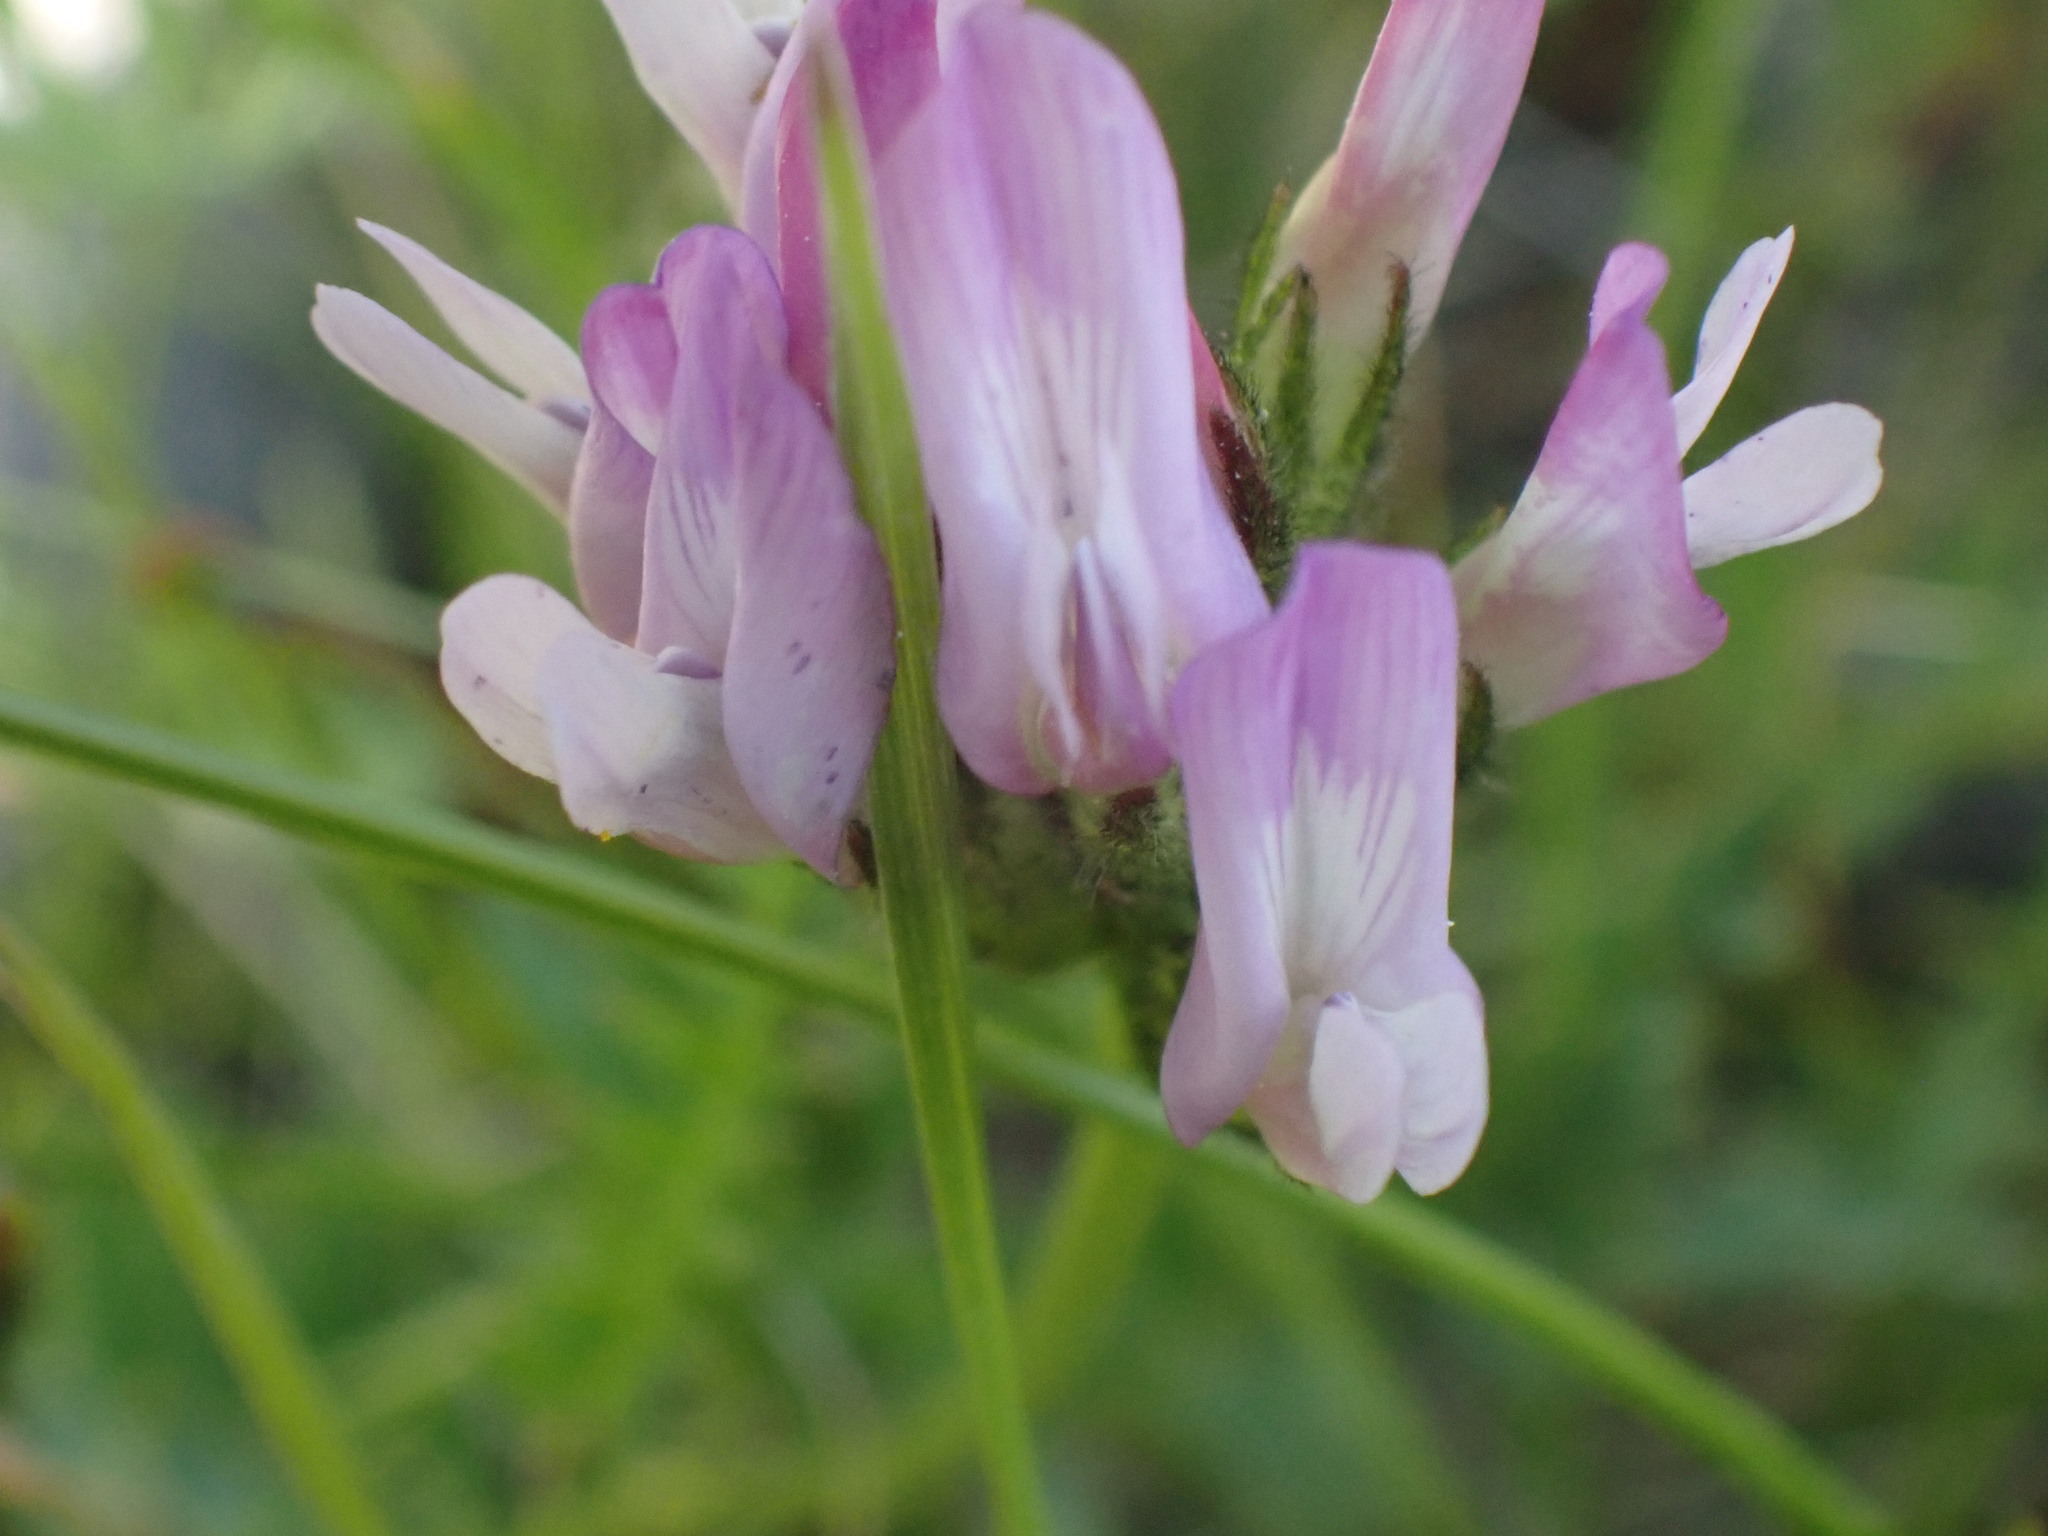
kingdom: Plantae
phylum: Tracheophyta
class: Magnoliopsida
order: Fabales
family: Fabaceae
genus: Astragalus
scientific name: Astragalus agrestis
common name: Field milk-vetch
